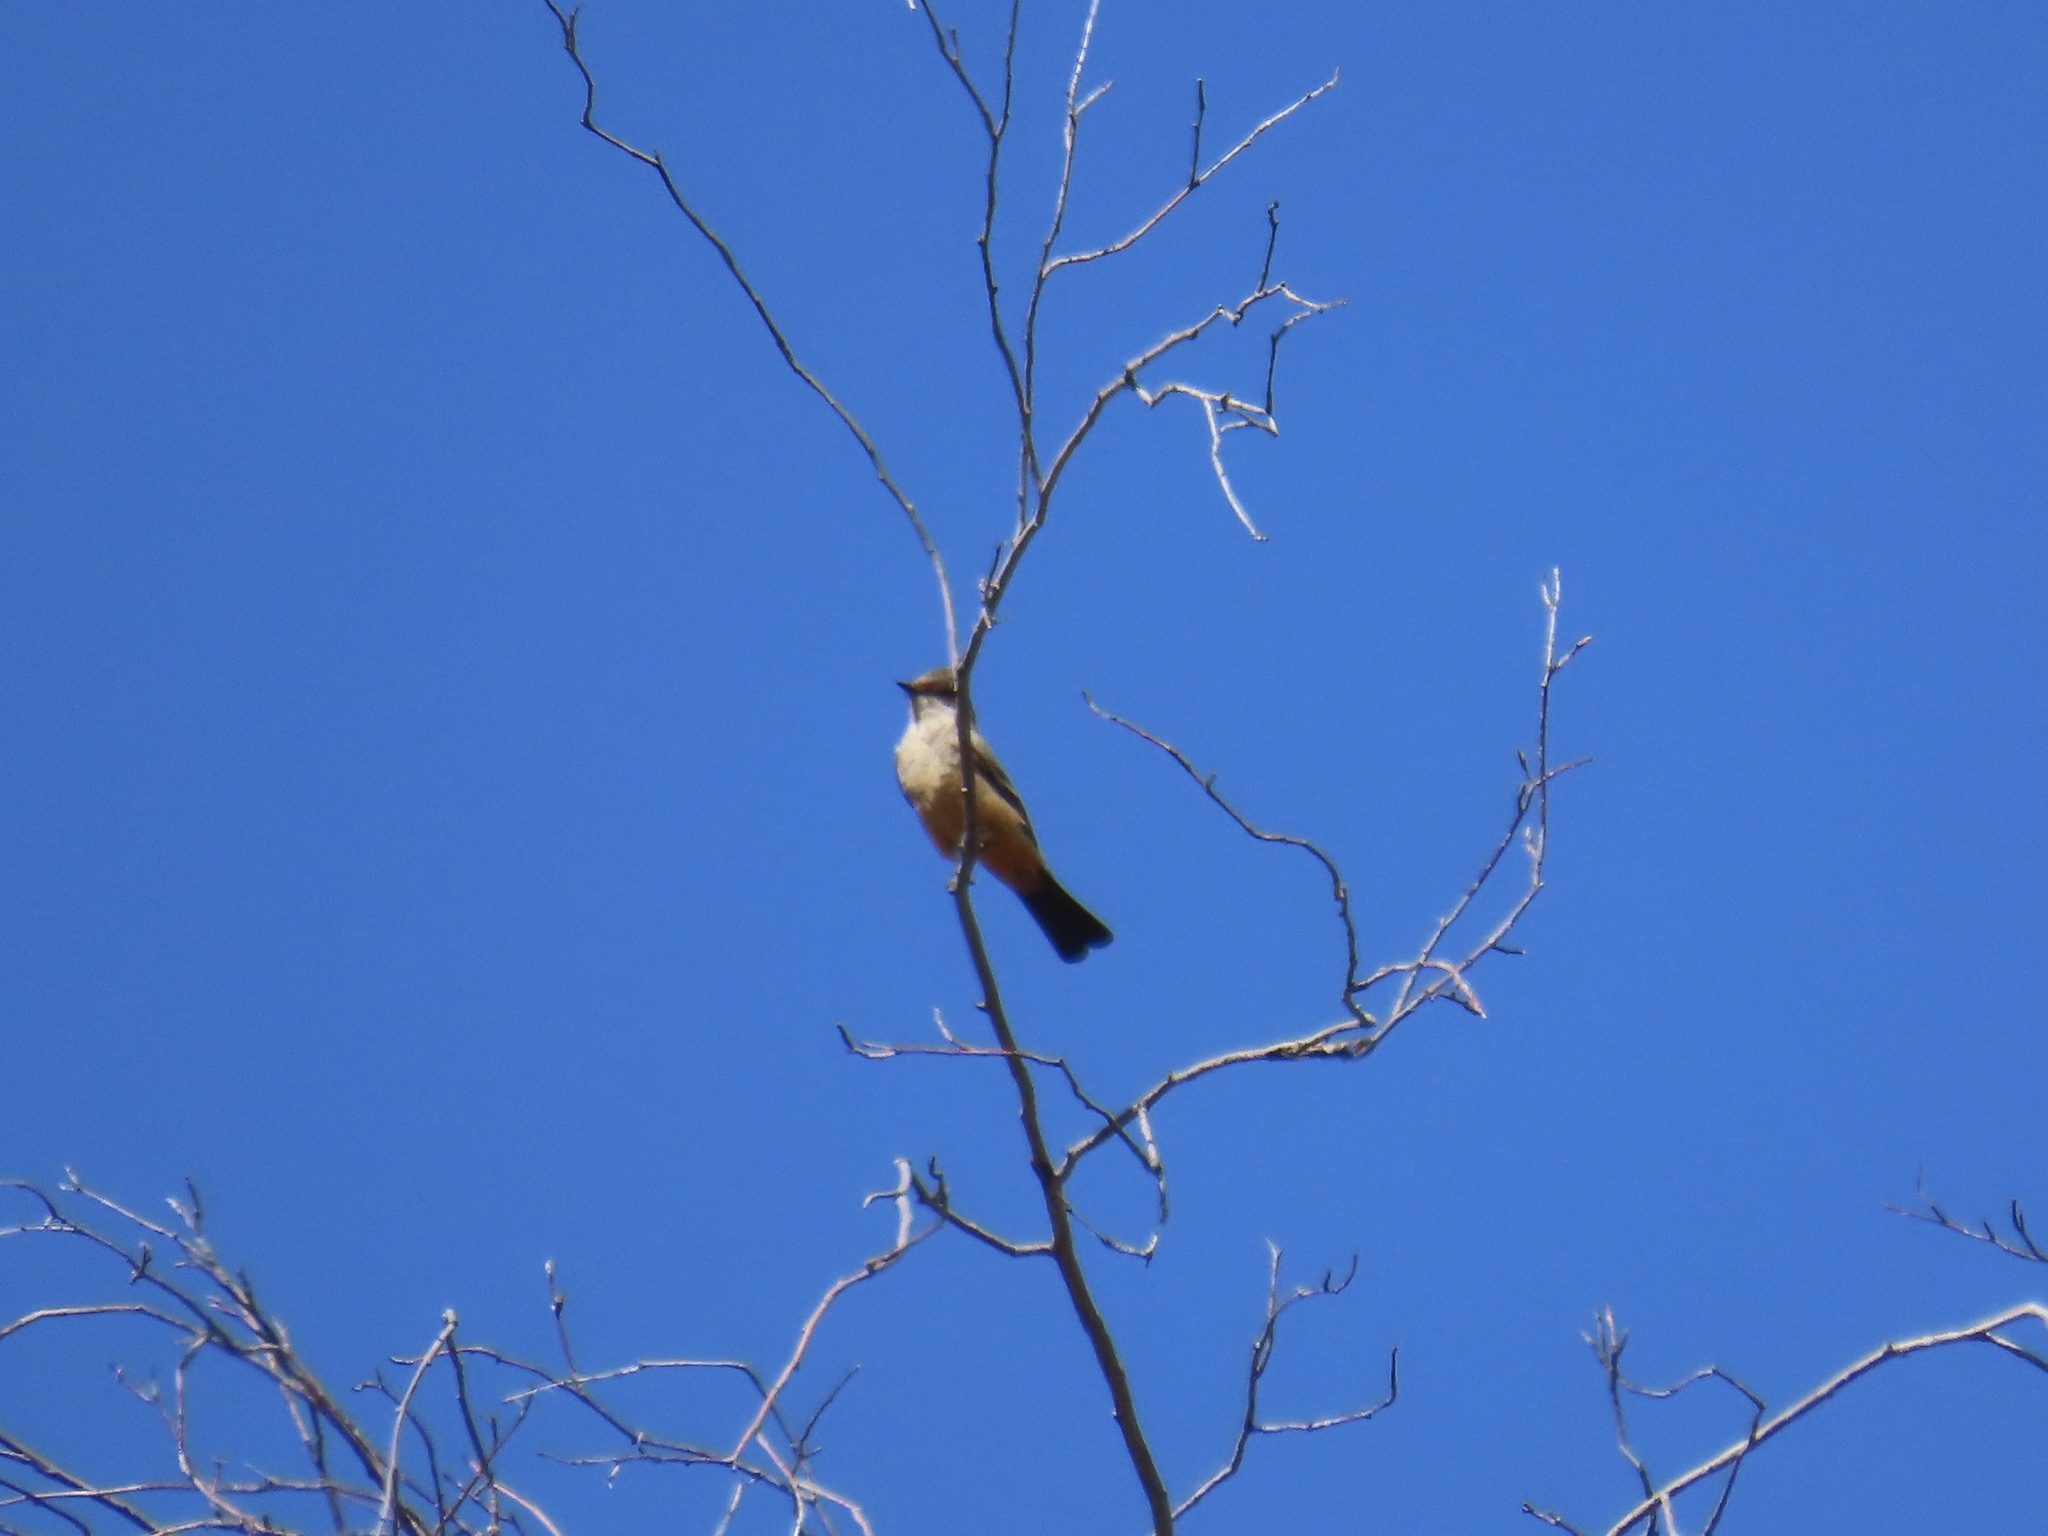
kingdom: Animalia
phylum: Chordata
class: Aves
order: Passeriformes
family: Tyrannidae
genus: Sayornis
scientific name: Sayornis saya
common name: Say's phoebe
